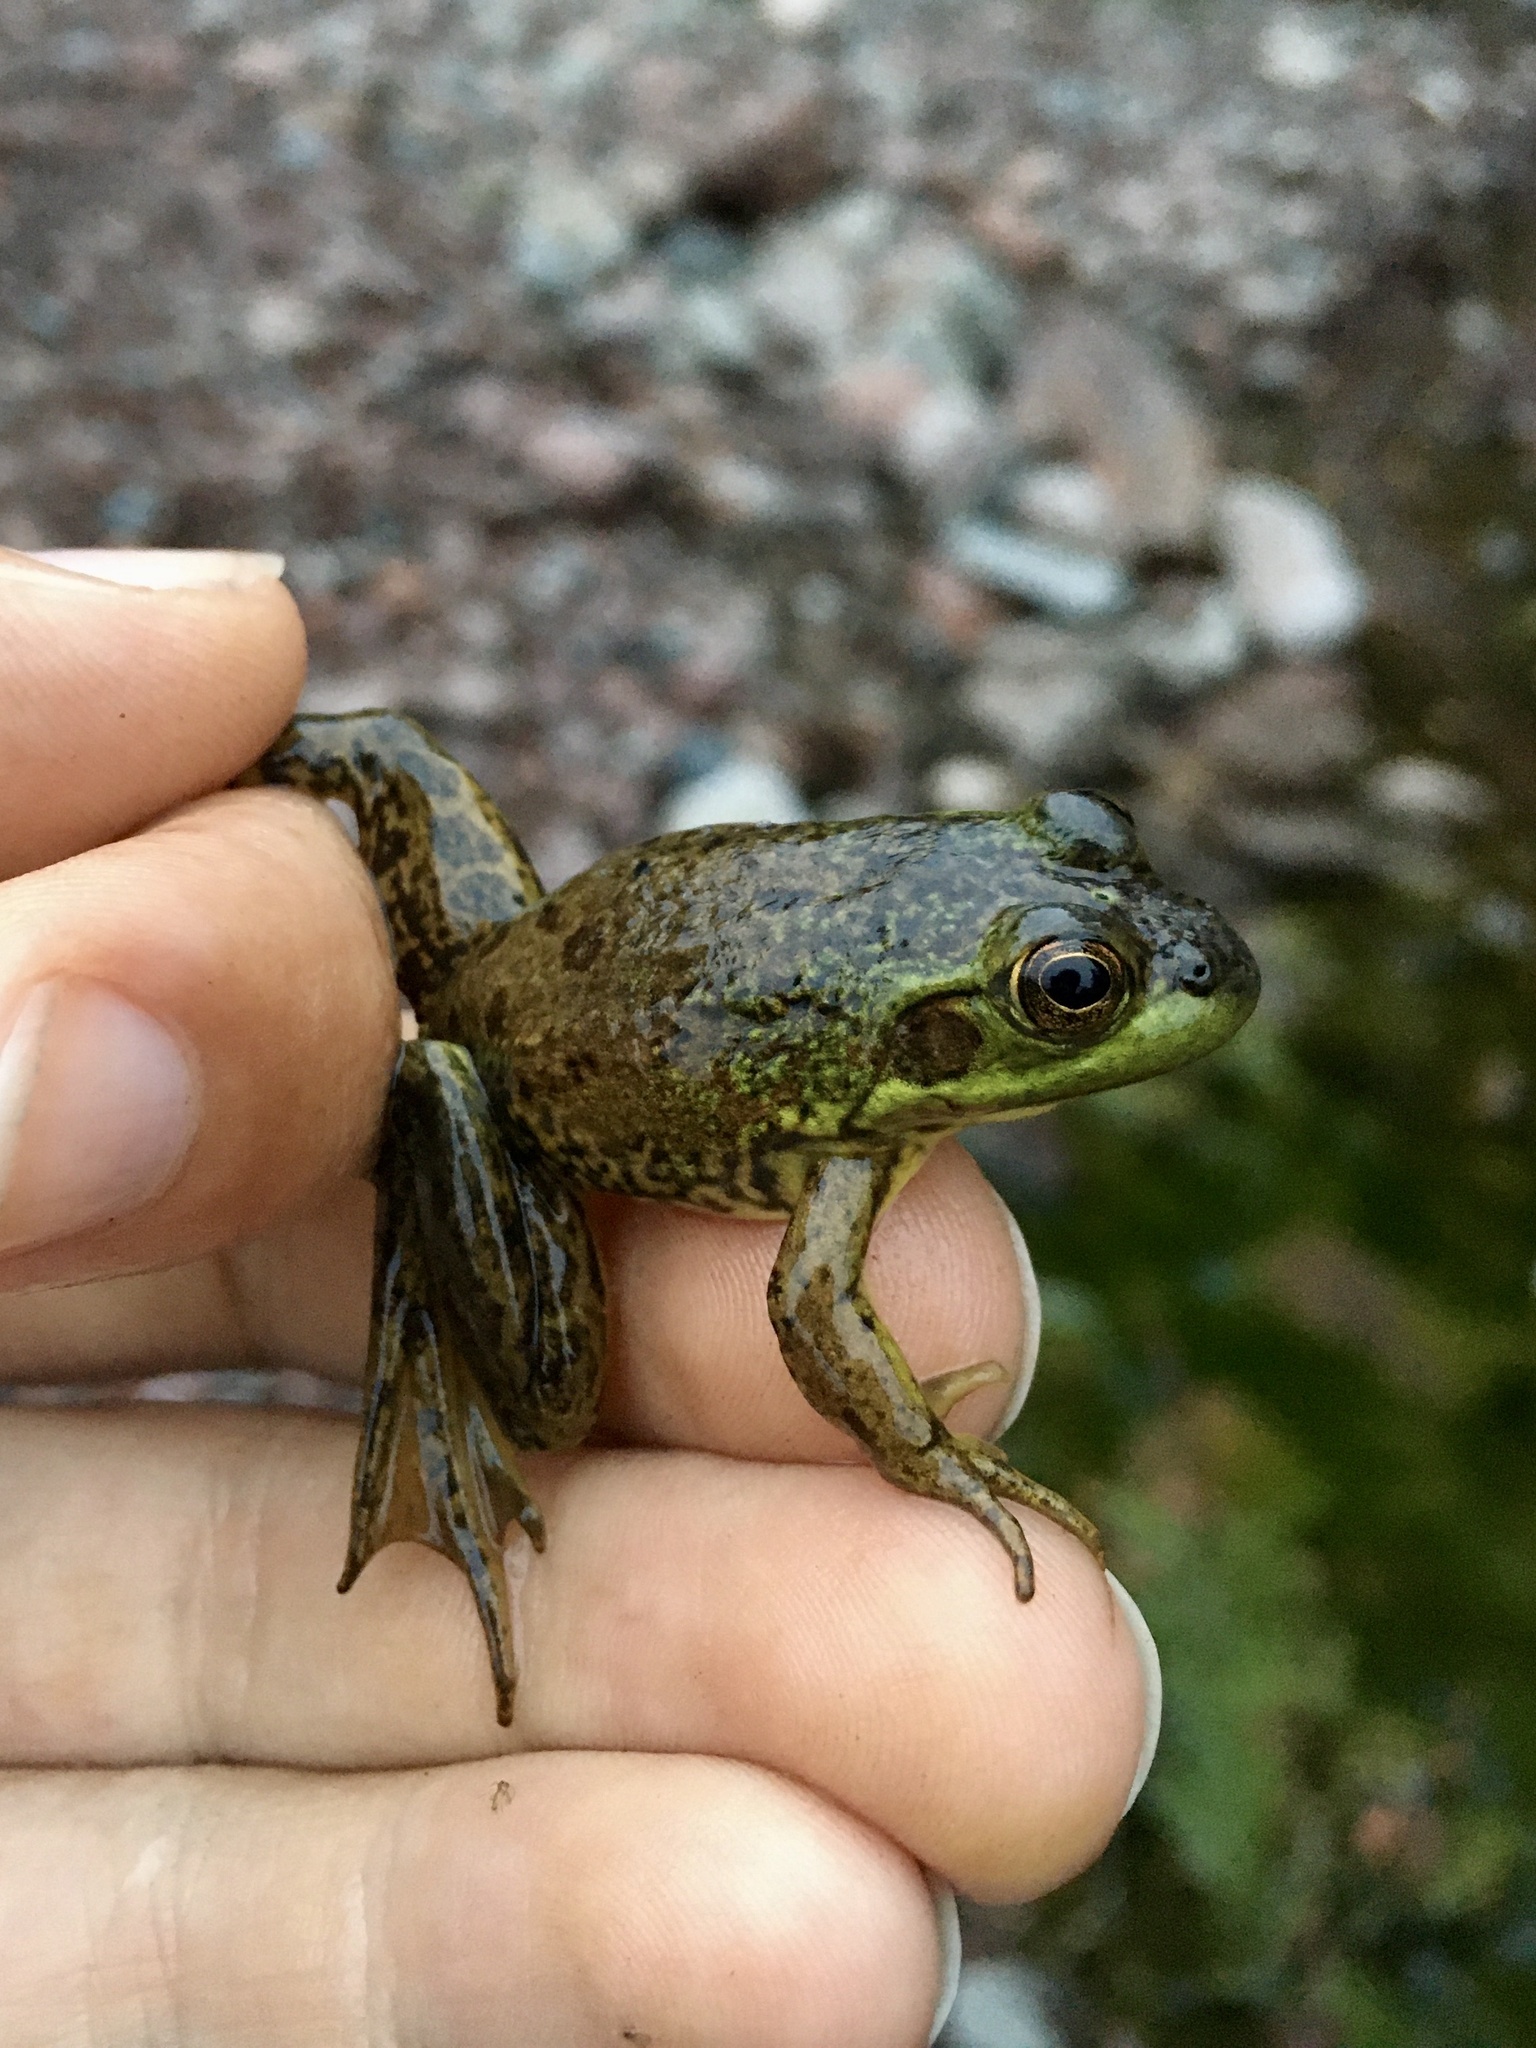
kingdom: Animalia
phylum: Chordata
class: Amphibia
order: Anura
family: Ranidae
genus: Lithobates
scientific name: Lithobates septentrionalis
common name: Mink frog
